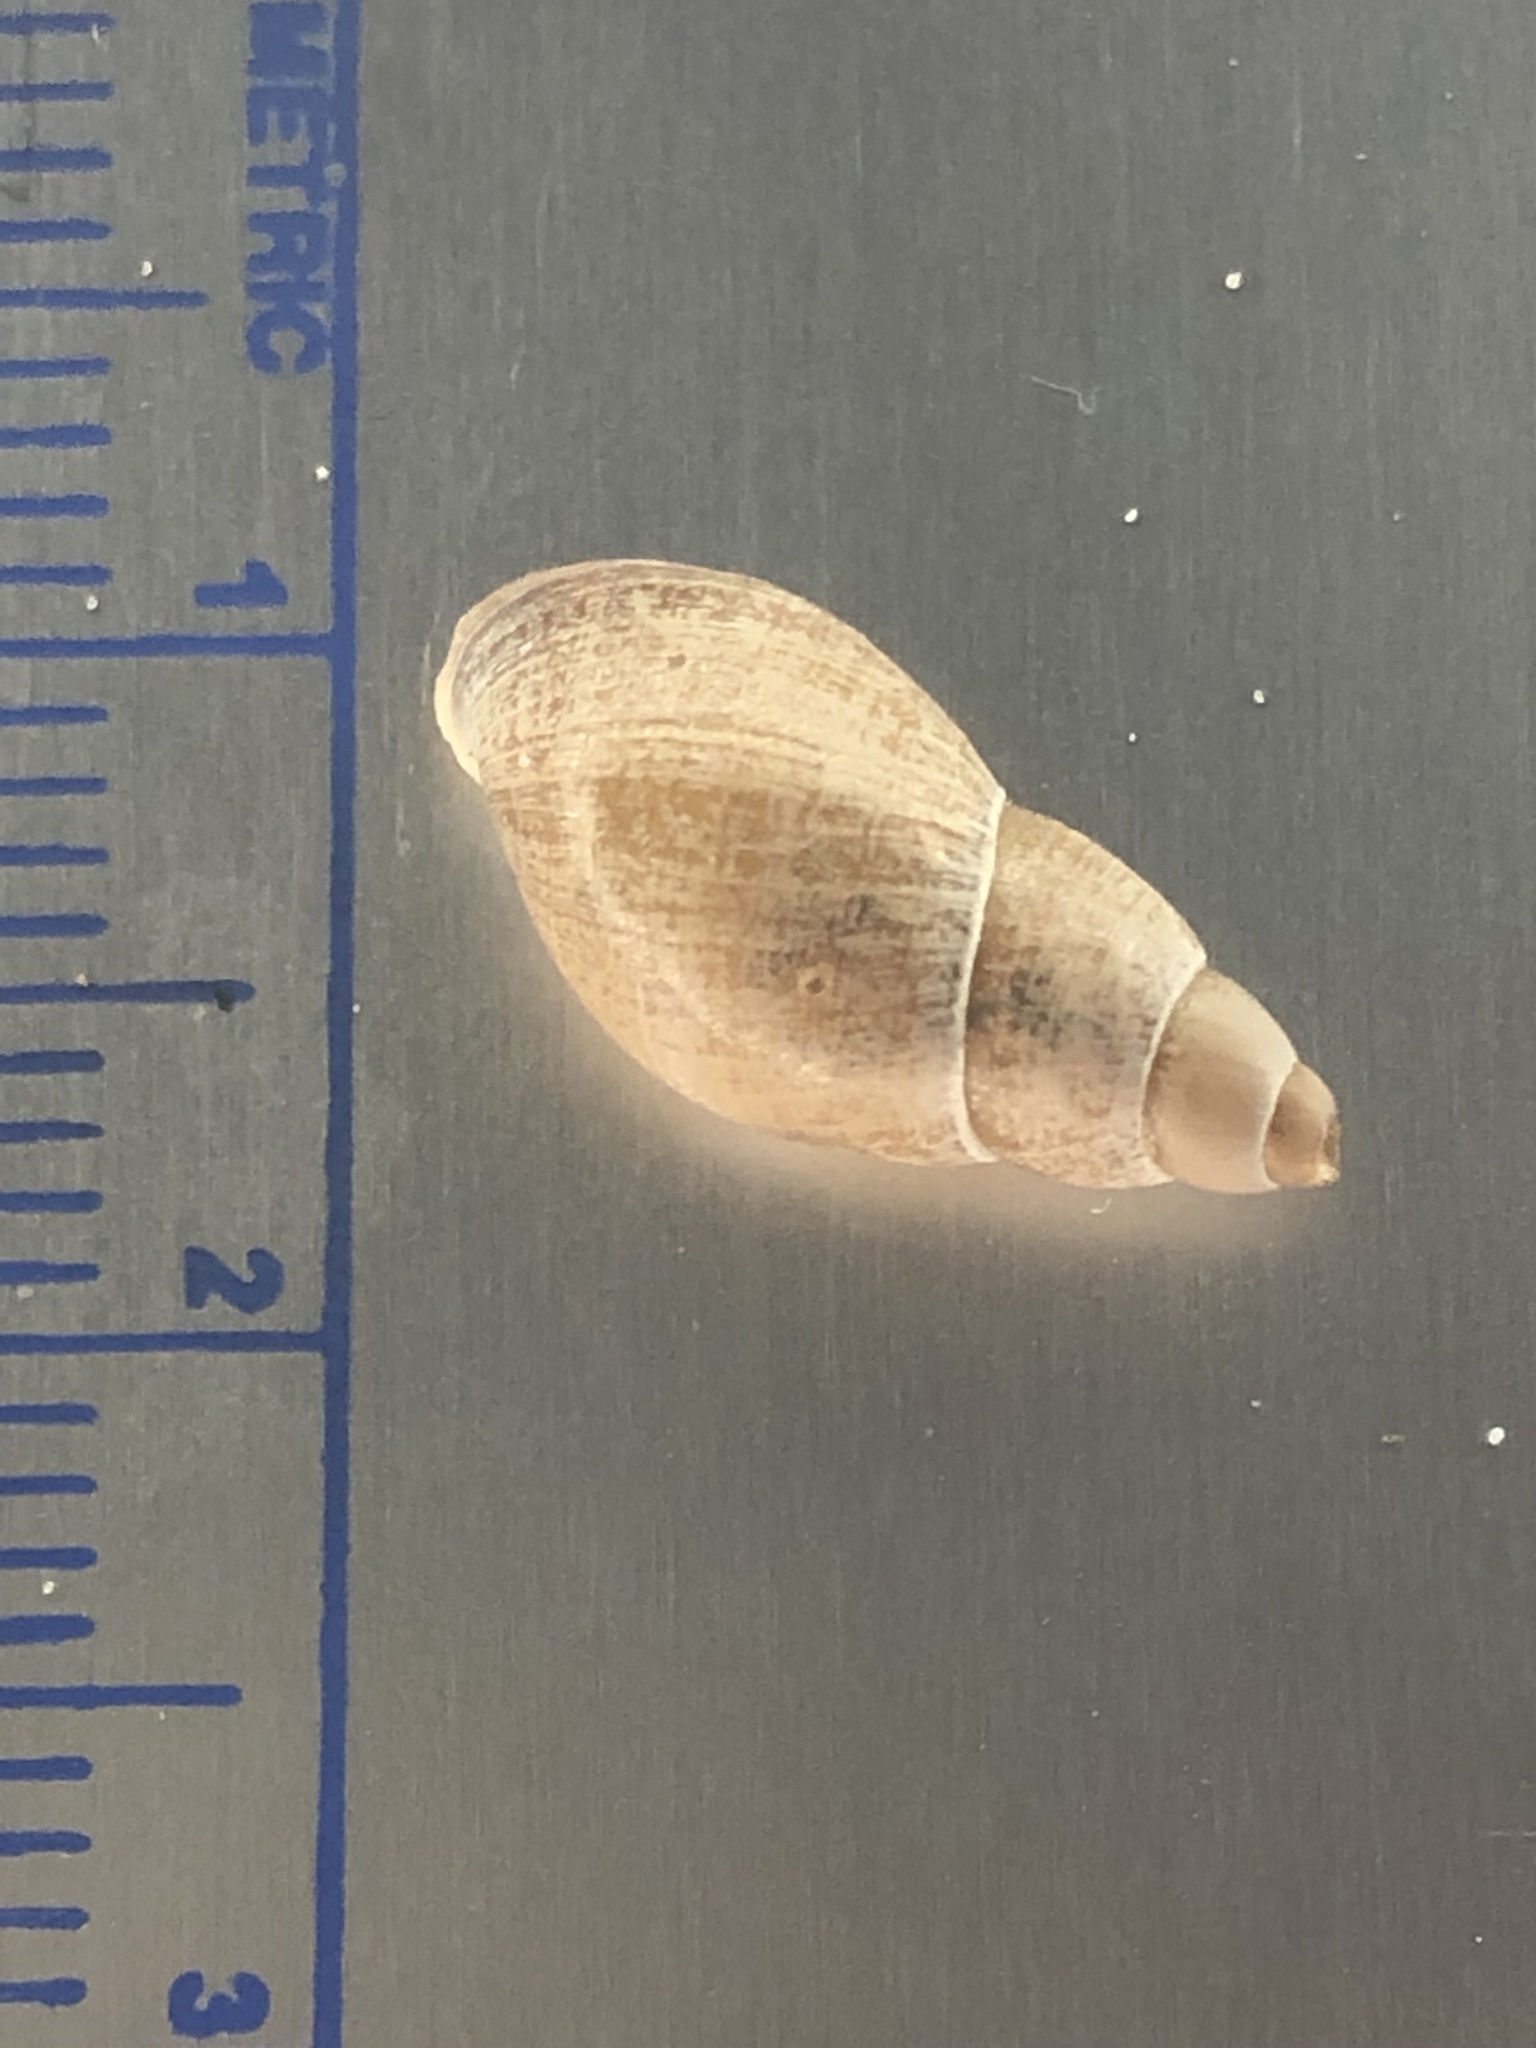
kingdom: Animalia
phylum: Mollusca
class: Gastropoda
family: Lymnaeidae
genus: Lymnaea
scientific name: Lymnaea stagnalis
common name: Great pond snail
